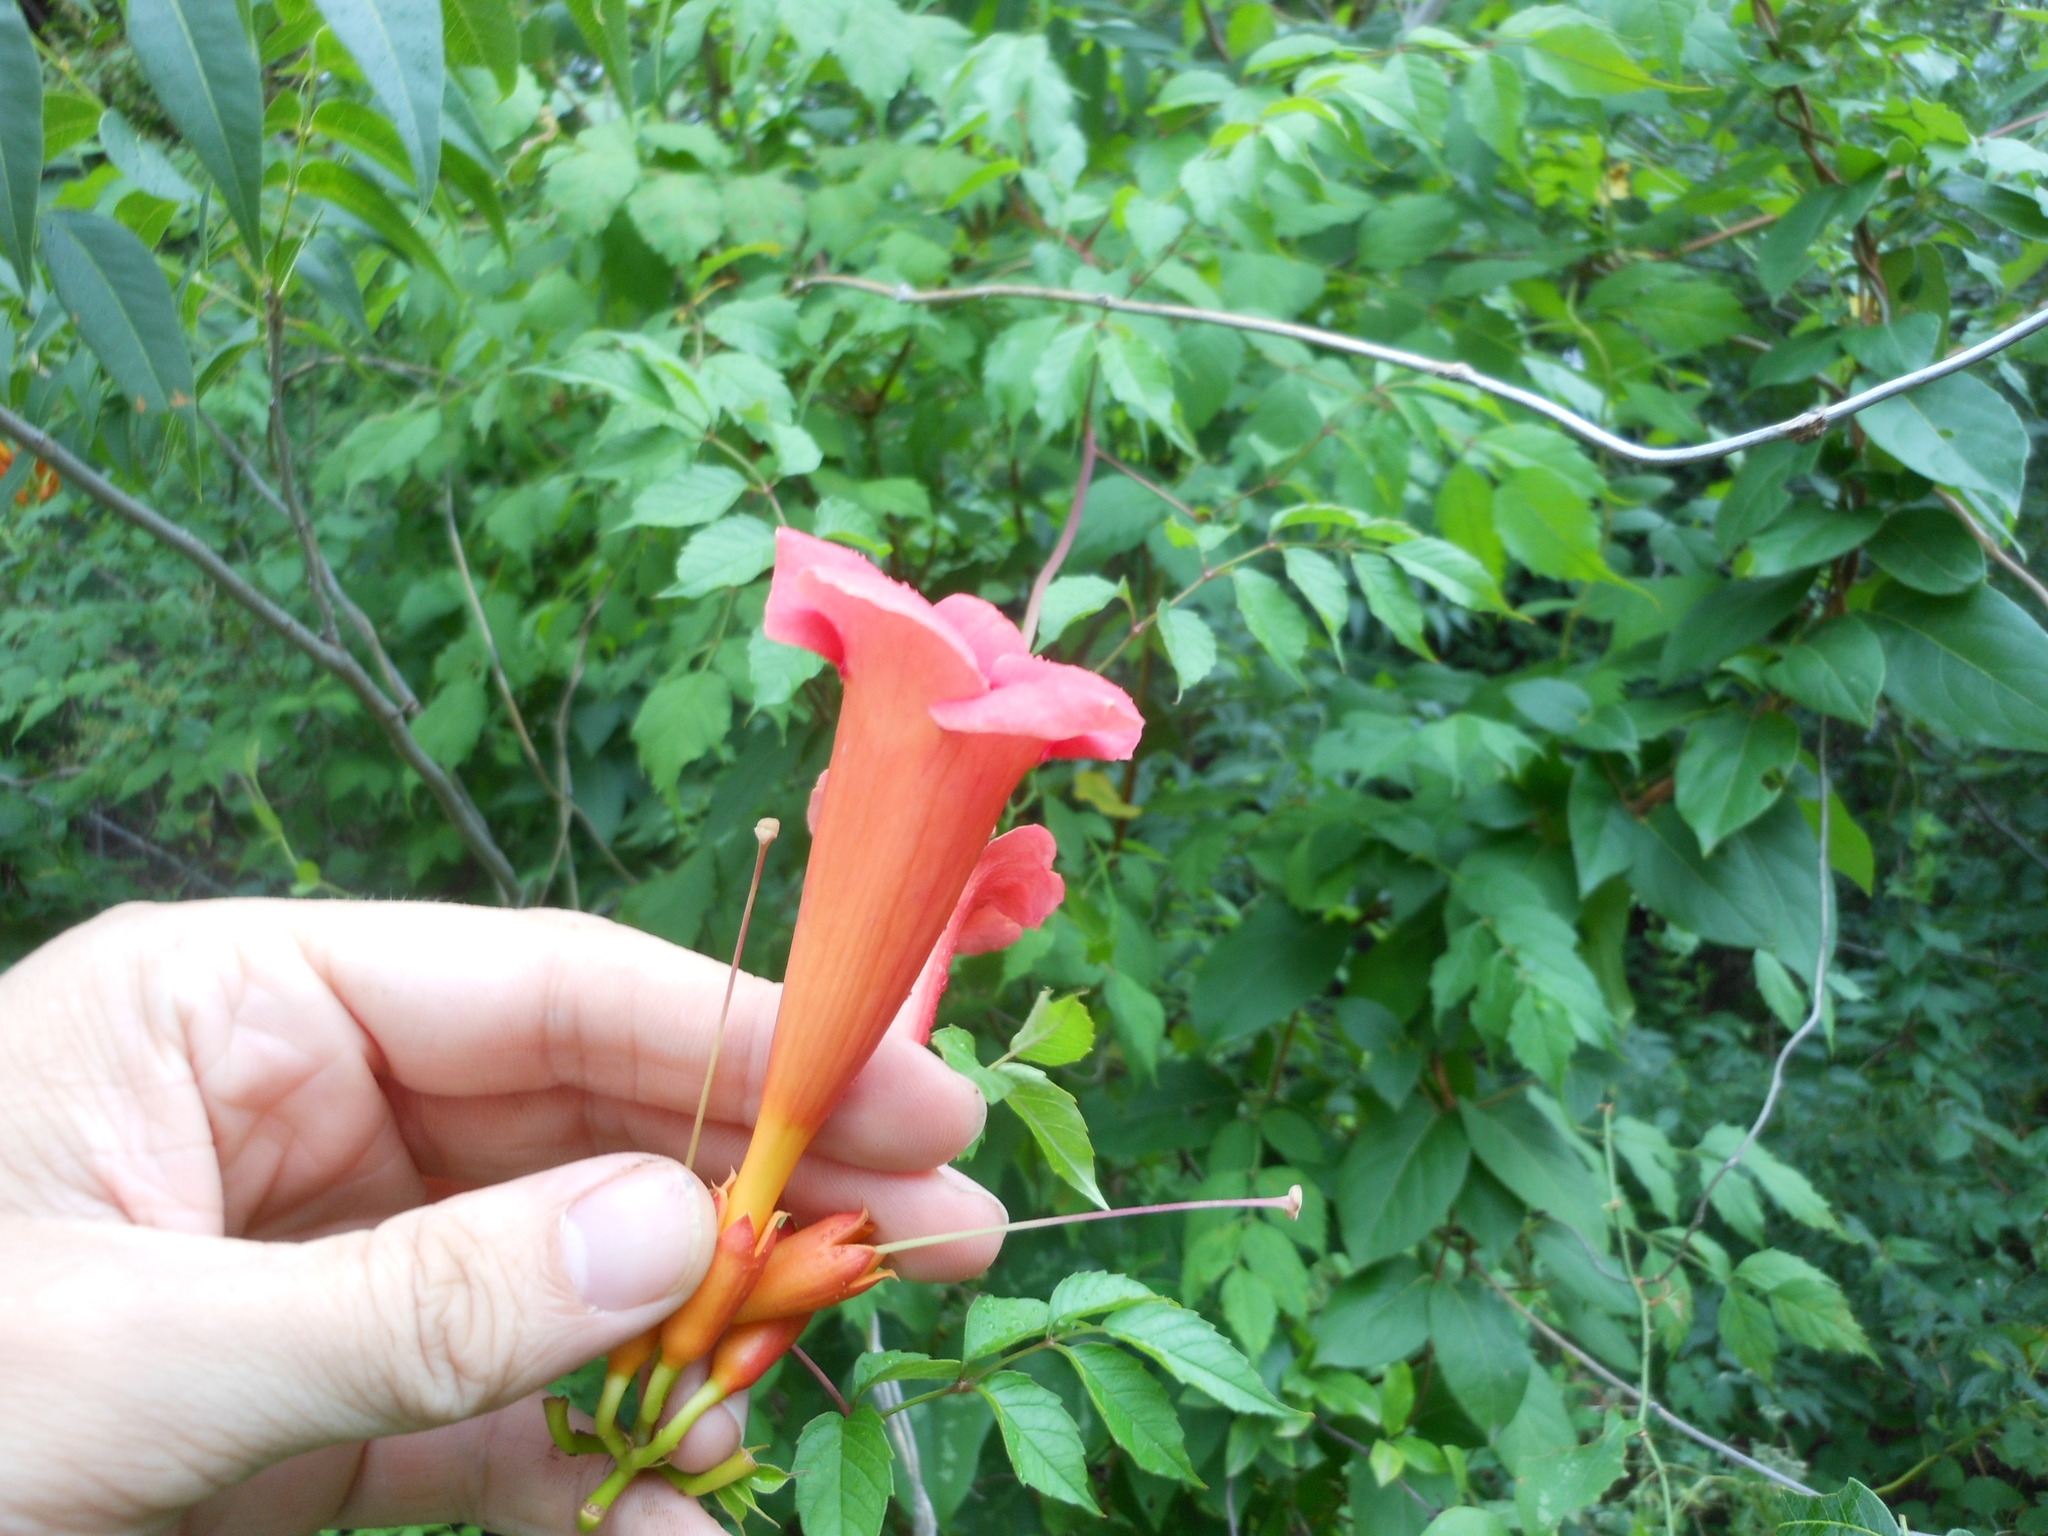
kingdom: Plantae
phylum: Tracheophyta
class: Magnoliopsida
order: Lamiales
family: Bignoniaceae
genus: Campsis
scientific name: Campsis radicans
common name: Trumpet-creeper
